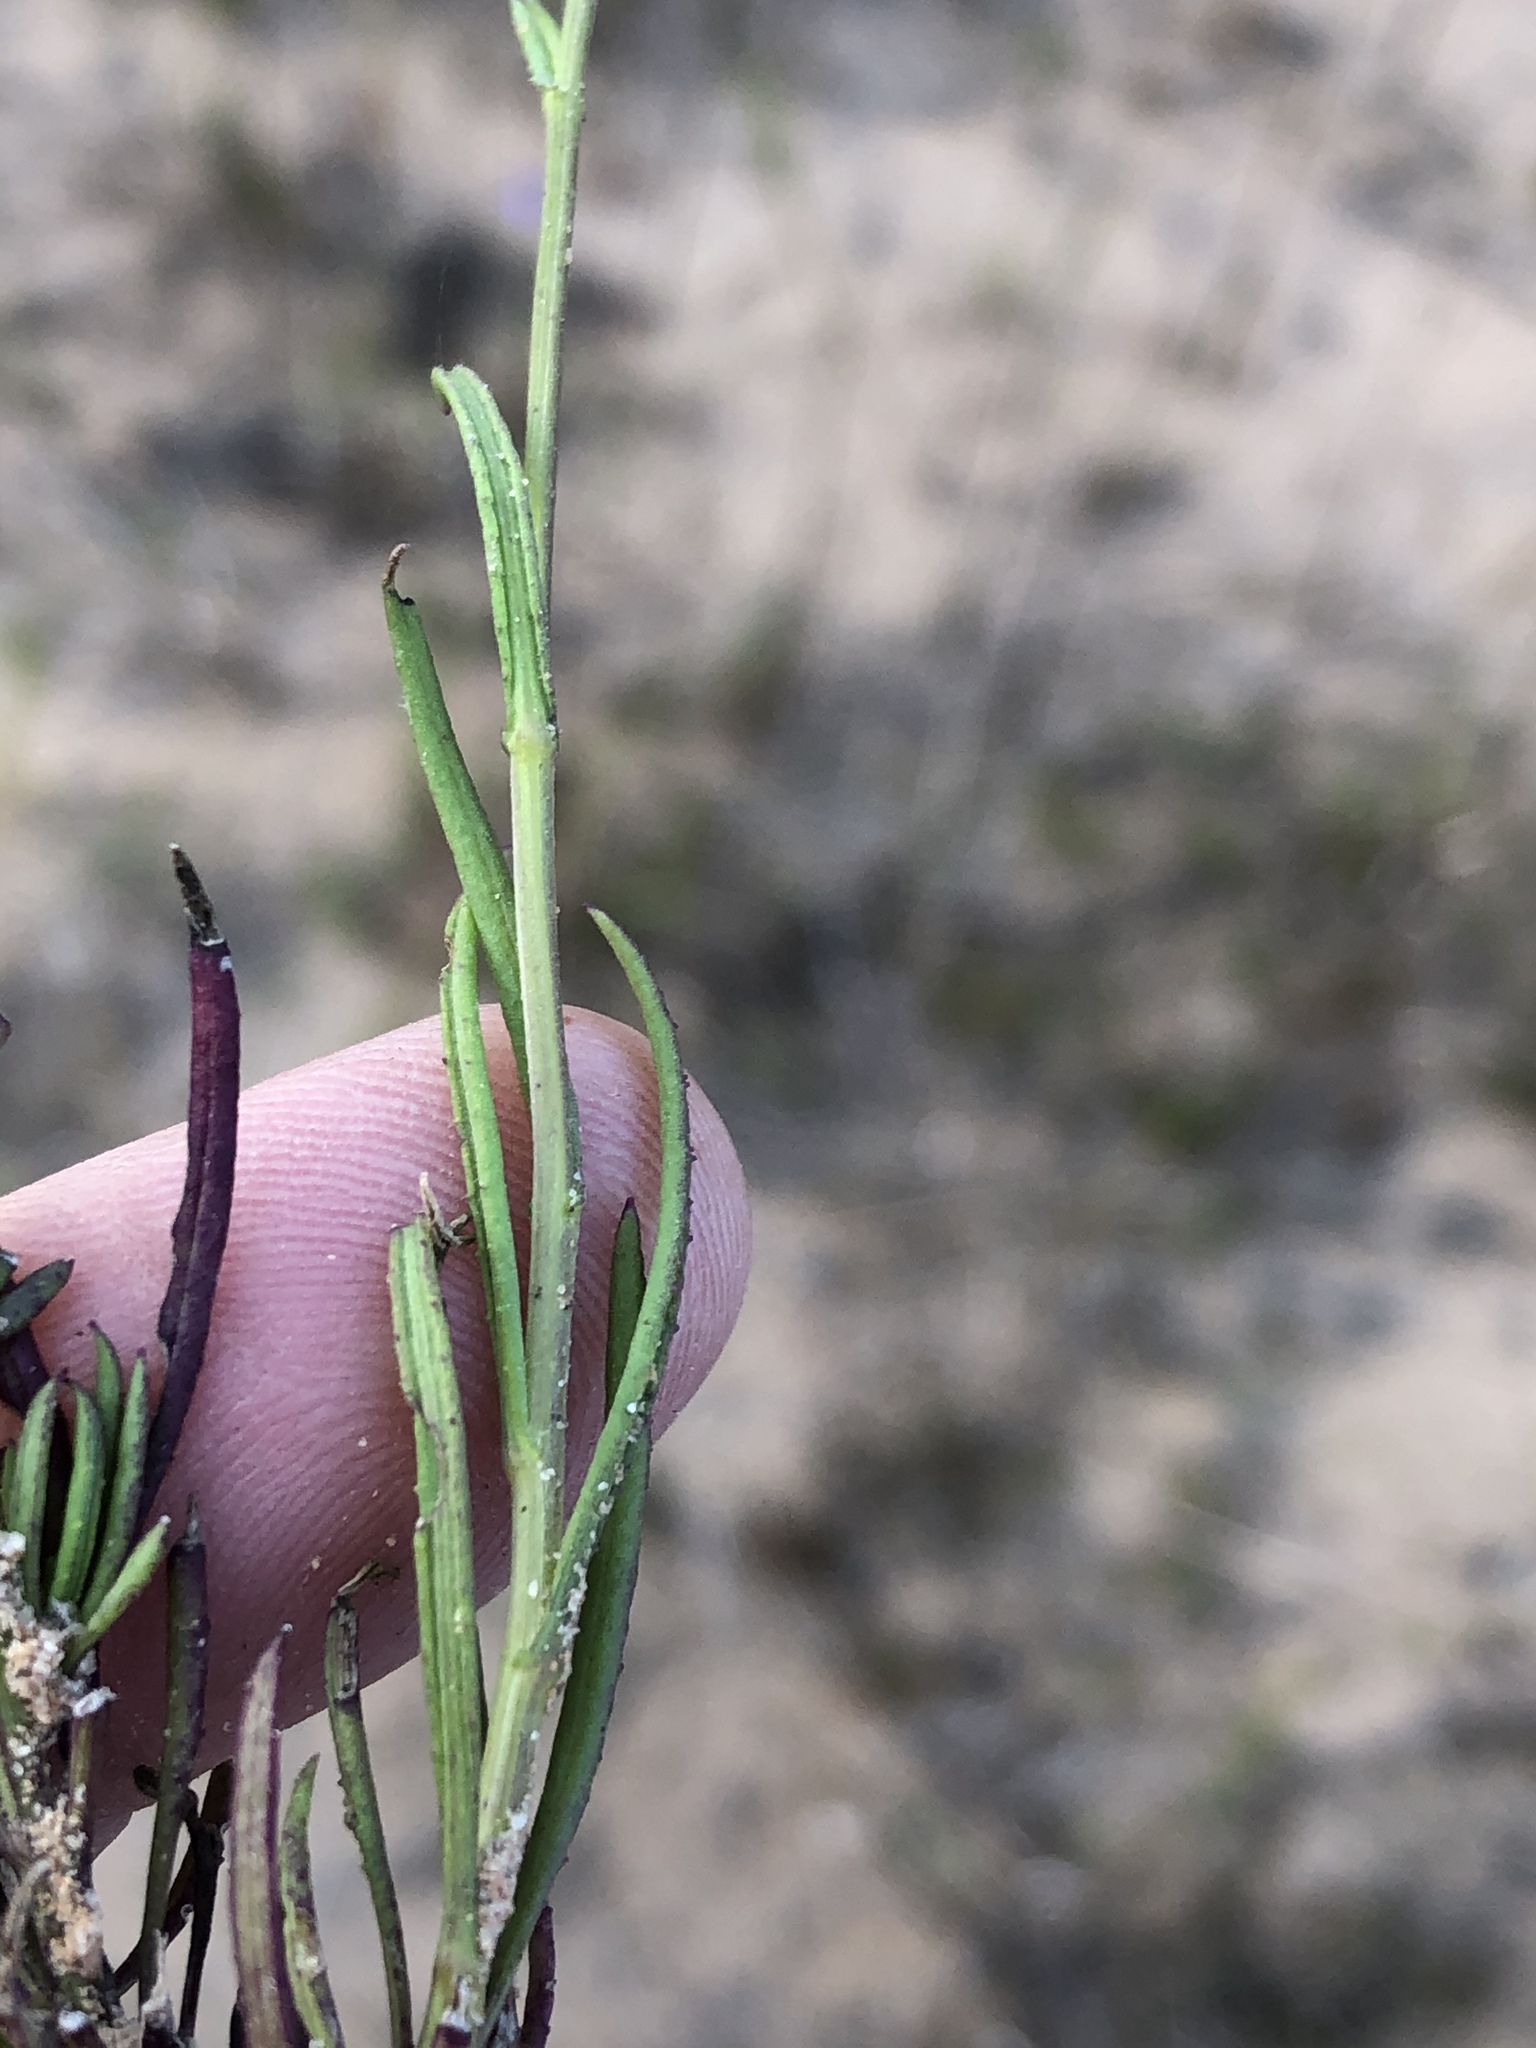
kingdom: Plantae
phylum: Tracheophyta
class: Magnoliopsida
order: Asterales
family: Asteraceae
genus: Senecio
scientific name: Senecio burchellii
